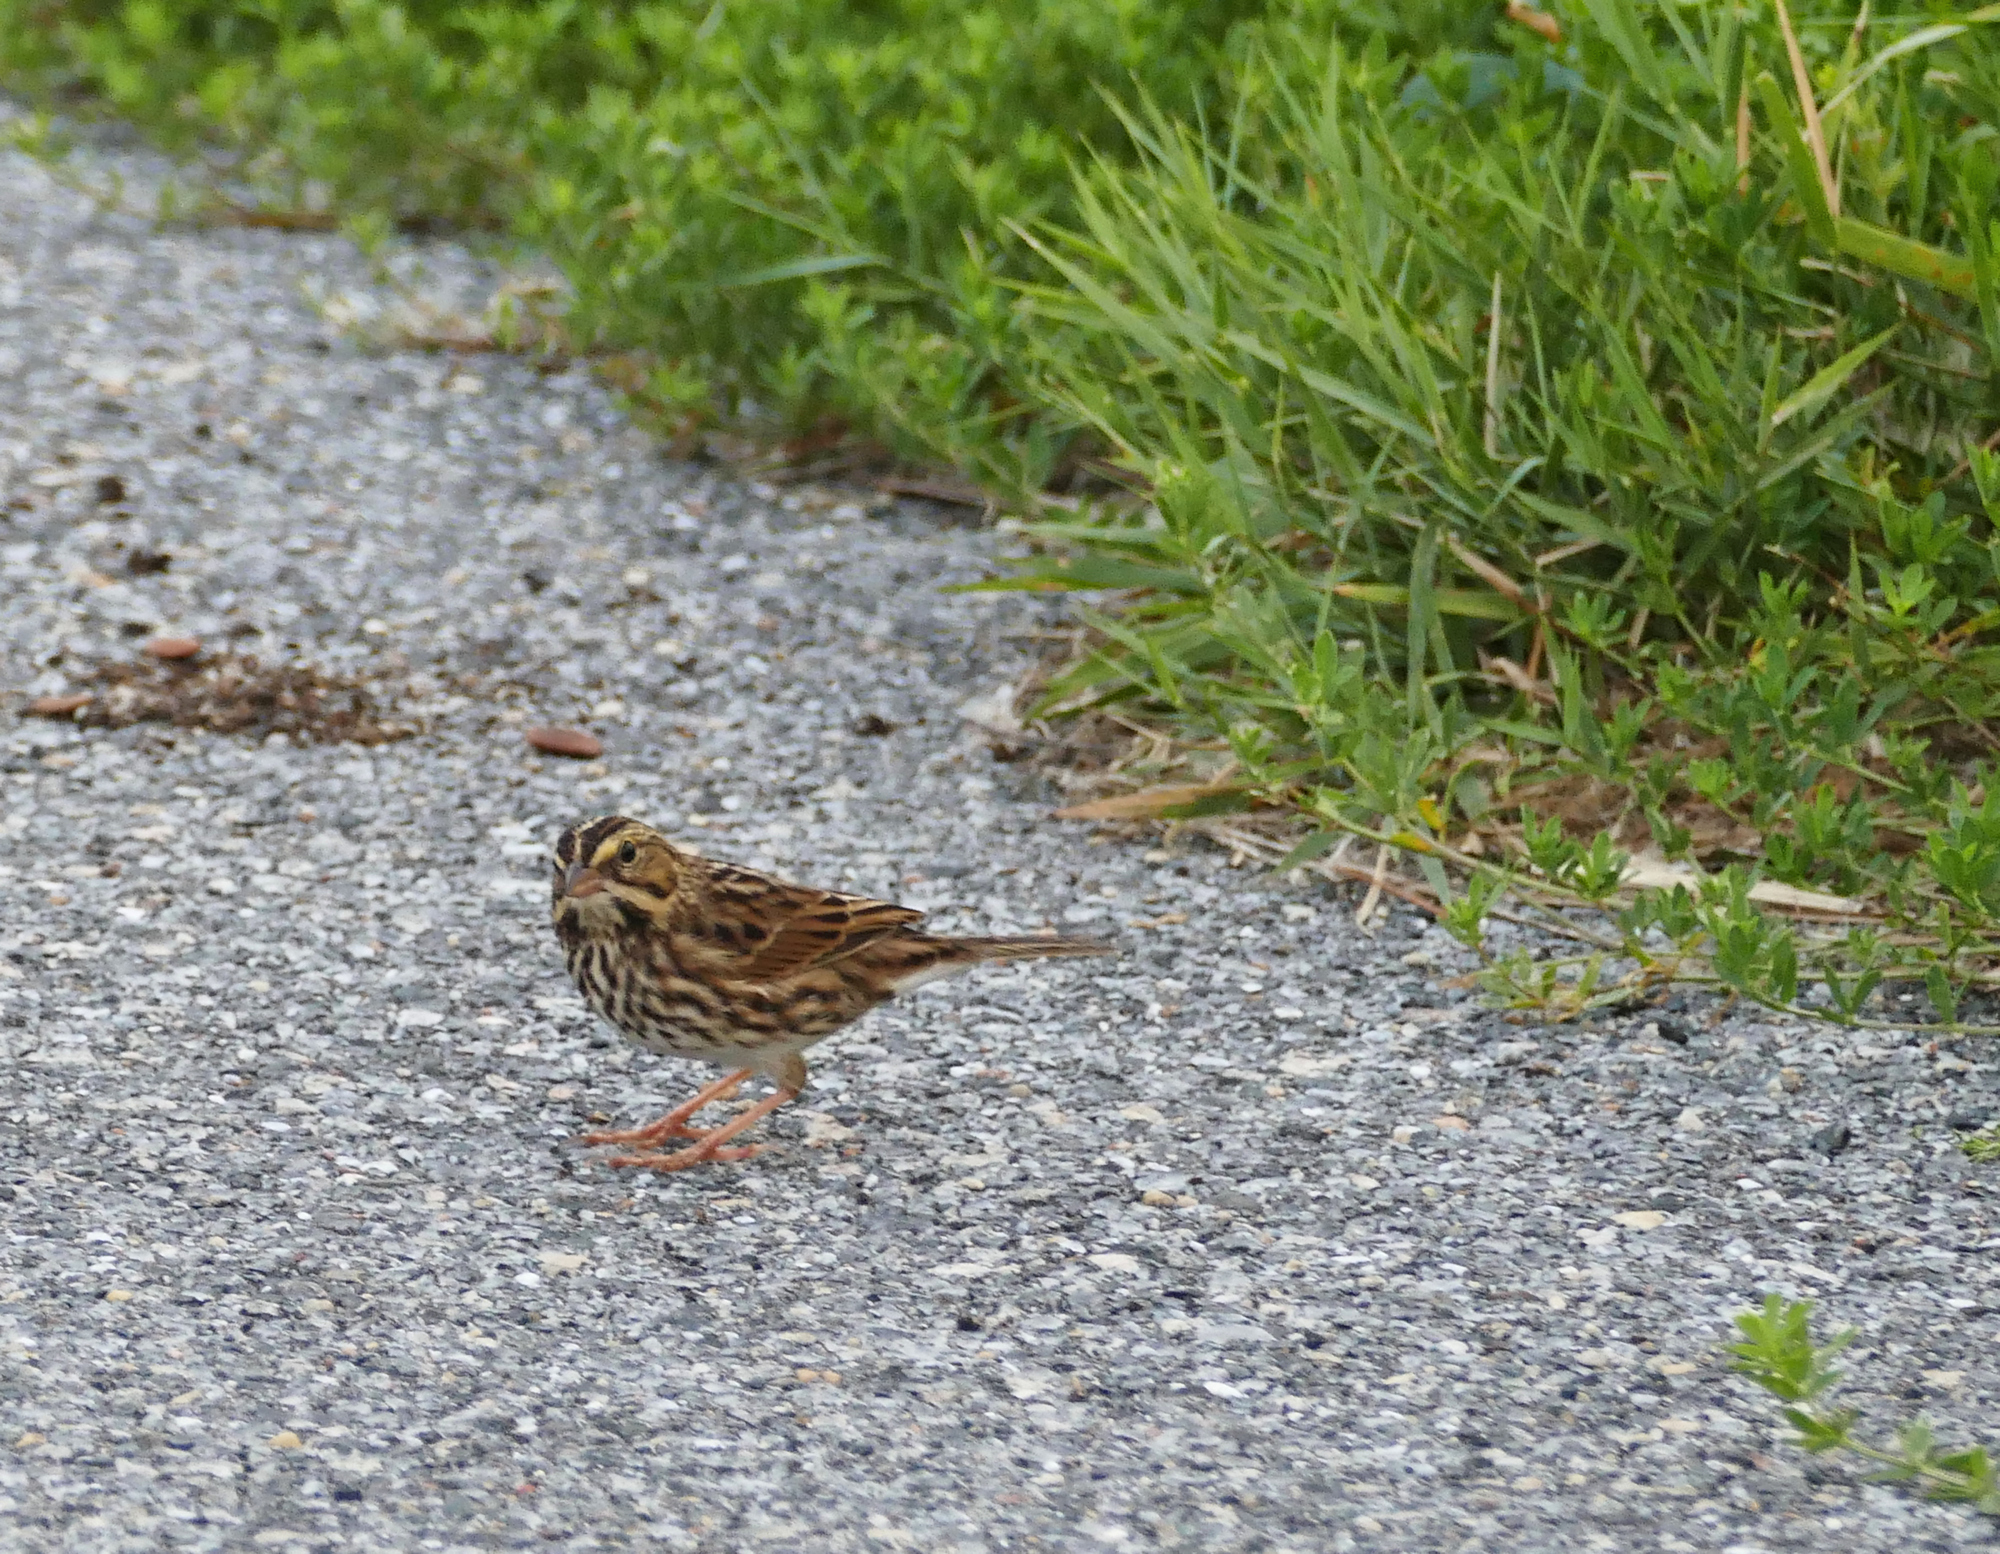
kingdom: Animalia
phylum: Chordata
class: Aves
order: Passeriformes
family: Passerellidae
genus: Passerculus
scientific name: Passerculus sandwichensis
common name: Savannah sparrow
